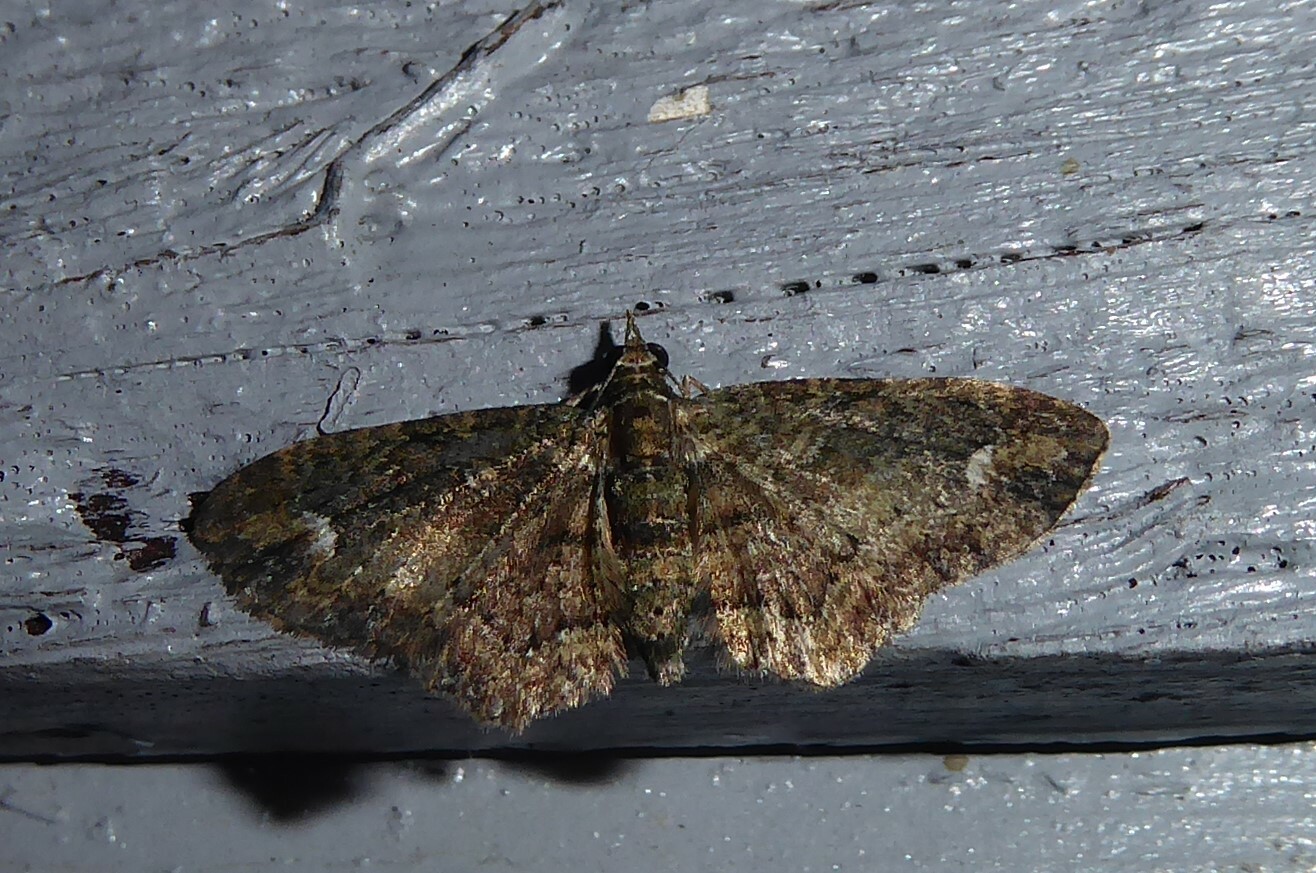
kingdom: Animalia
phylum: Arthropoda
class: Insecta
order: Lepidoptera
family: Geometridae
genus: Pasiphilodes
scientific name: Pasiphilodes testulata
